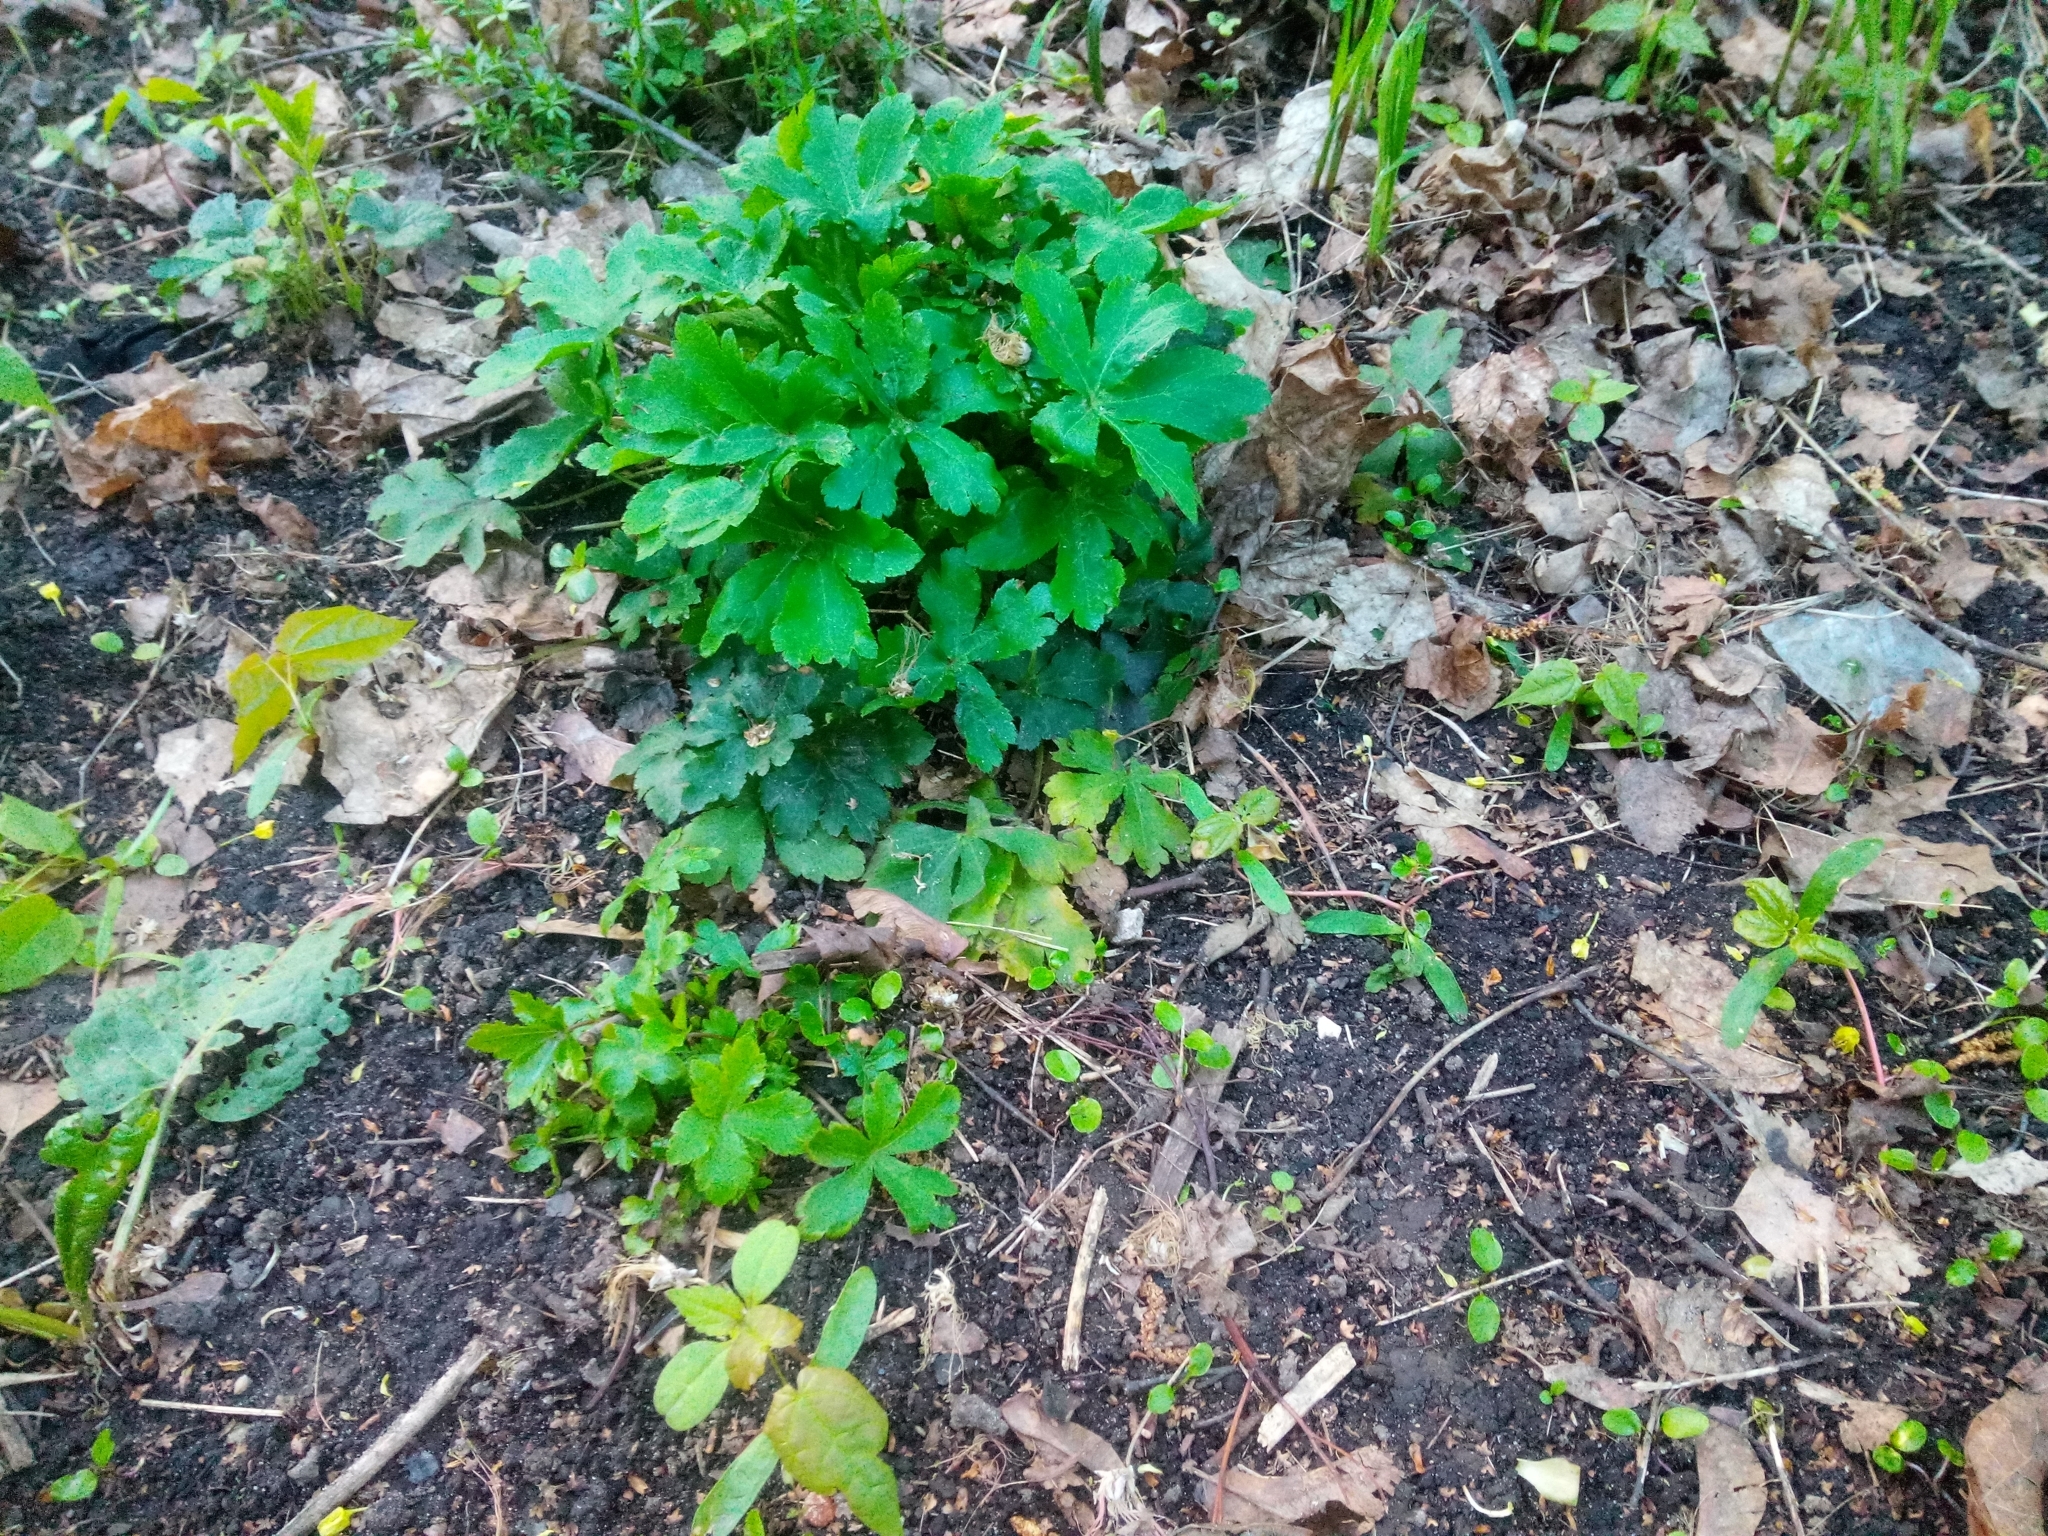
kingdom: Plantae
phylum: Tracheophyta
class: Magnoliopsida
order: Apiales
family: Apiaceae
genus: Sanicula
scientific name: Sanicula europaea
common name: Sanicle
